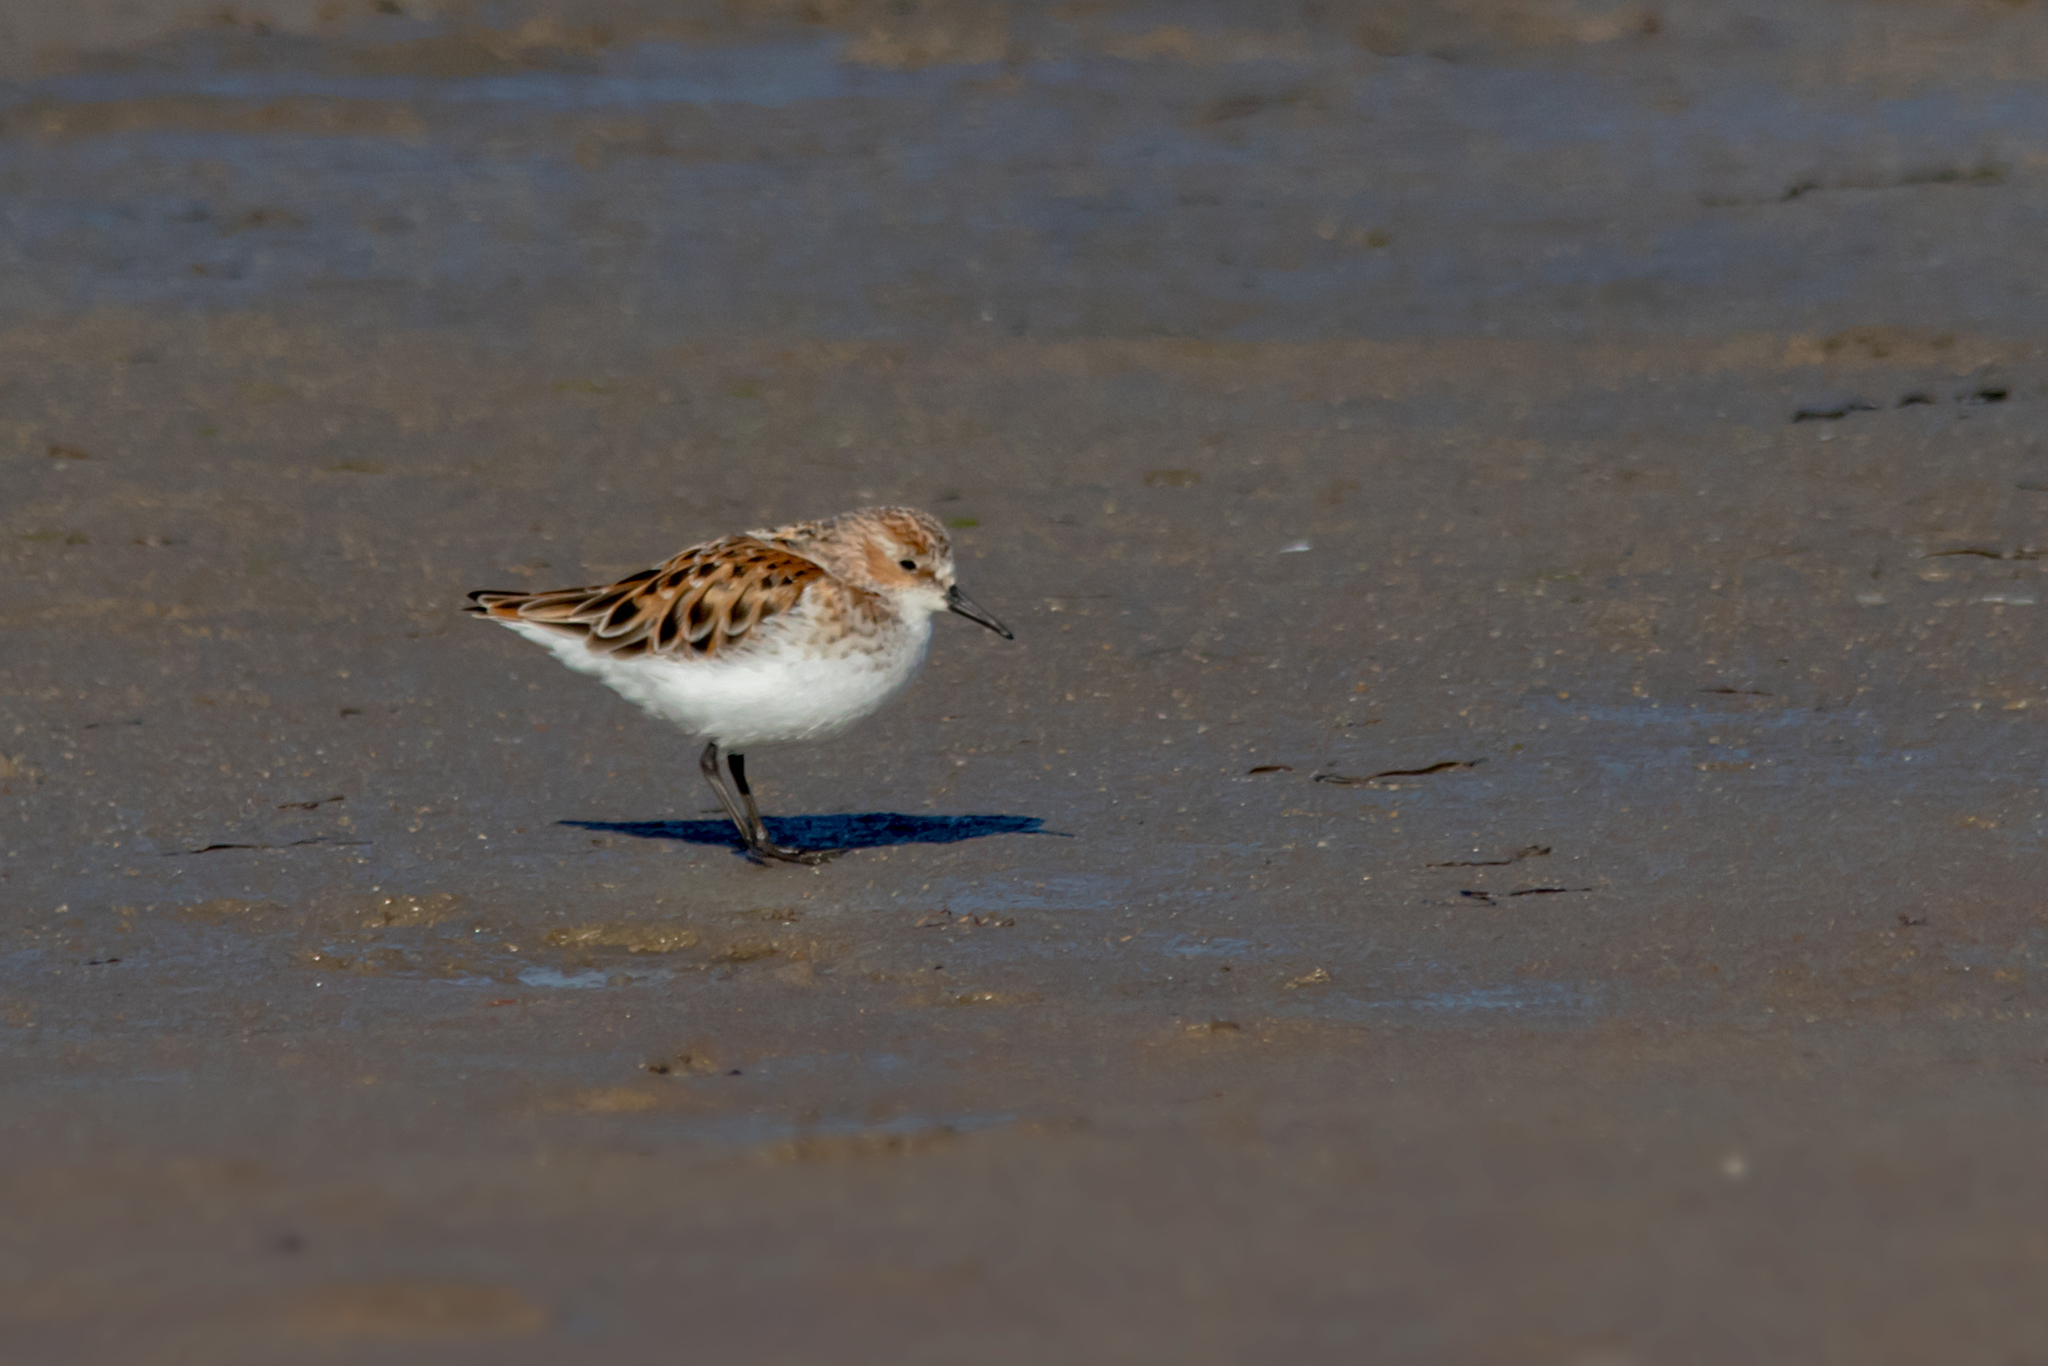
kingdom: Animalia
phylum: Chordata
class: Aves
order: Charadriiformes
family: Scolopacidae
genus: Calidris
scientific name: Calidris minuta
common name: Little stint
